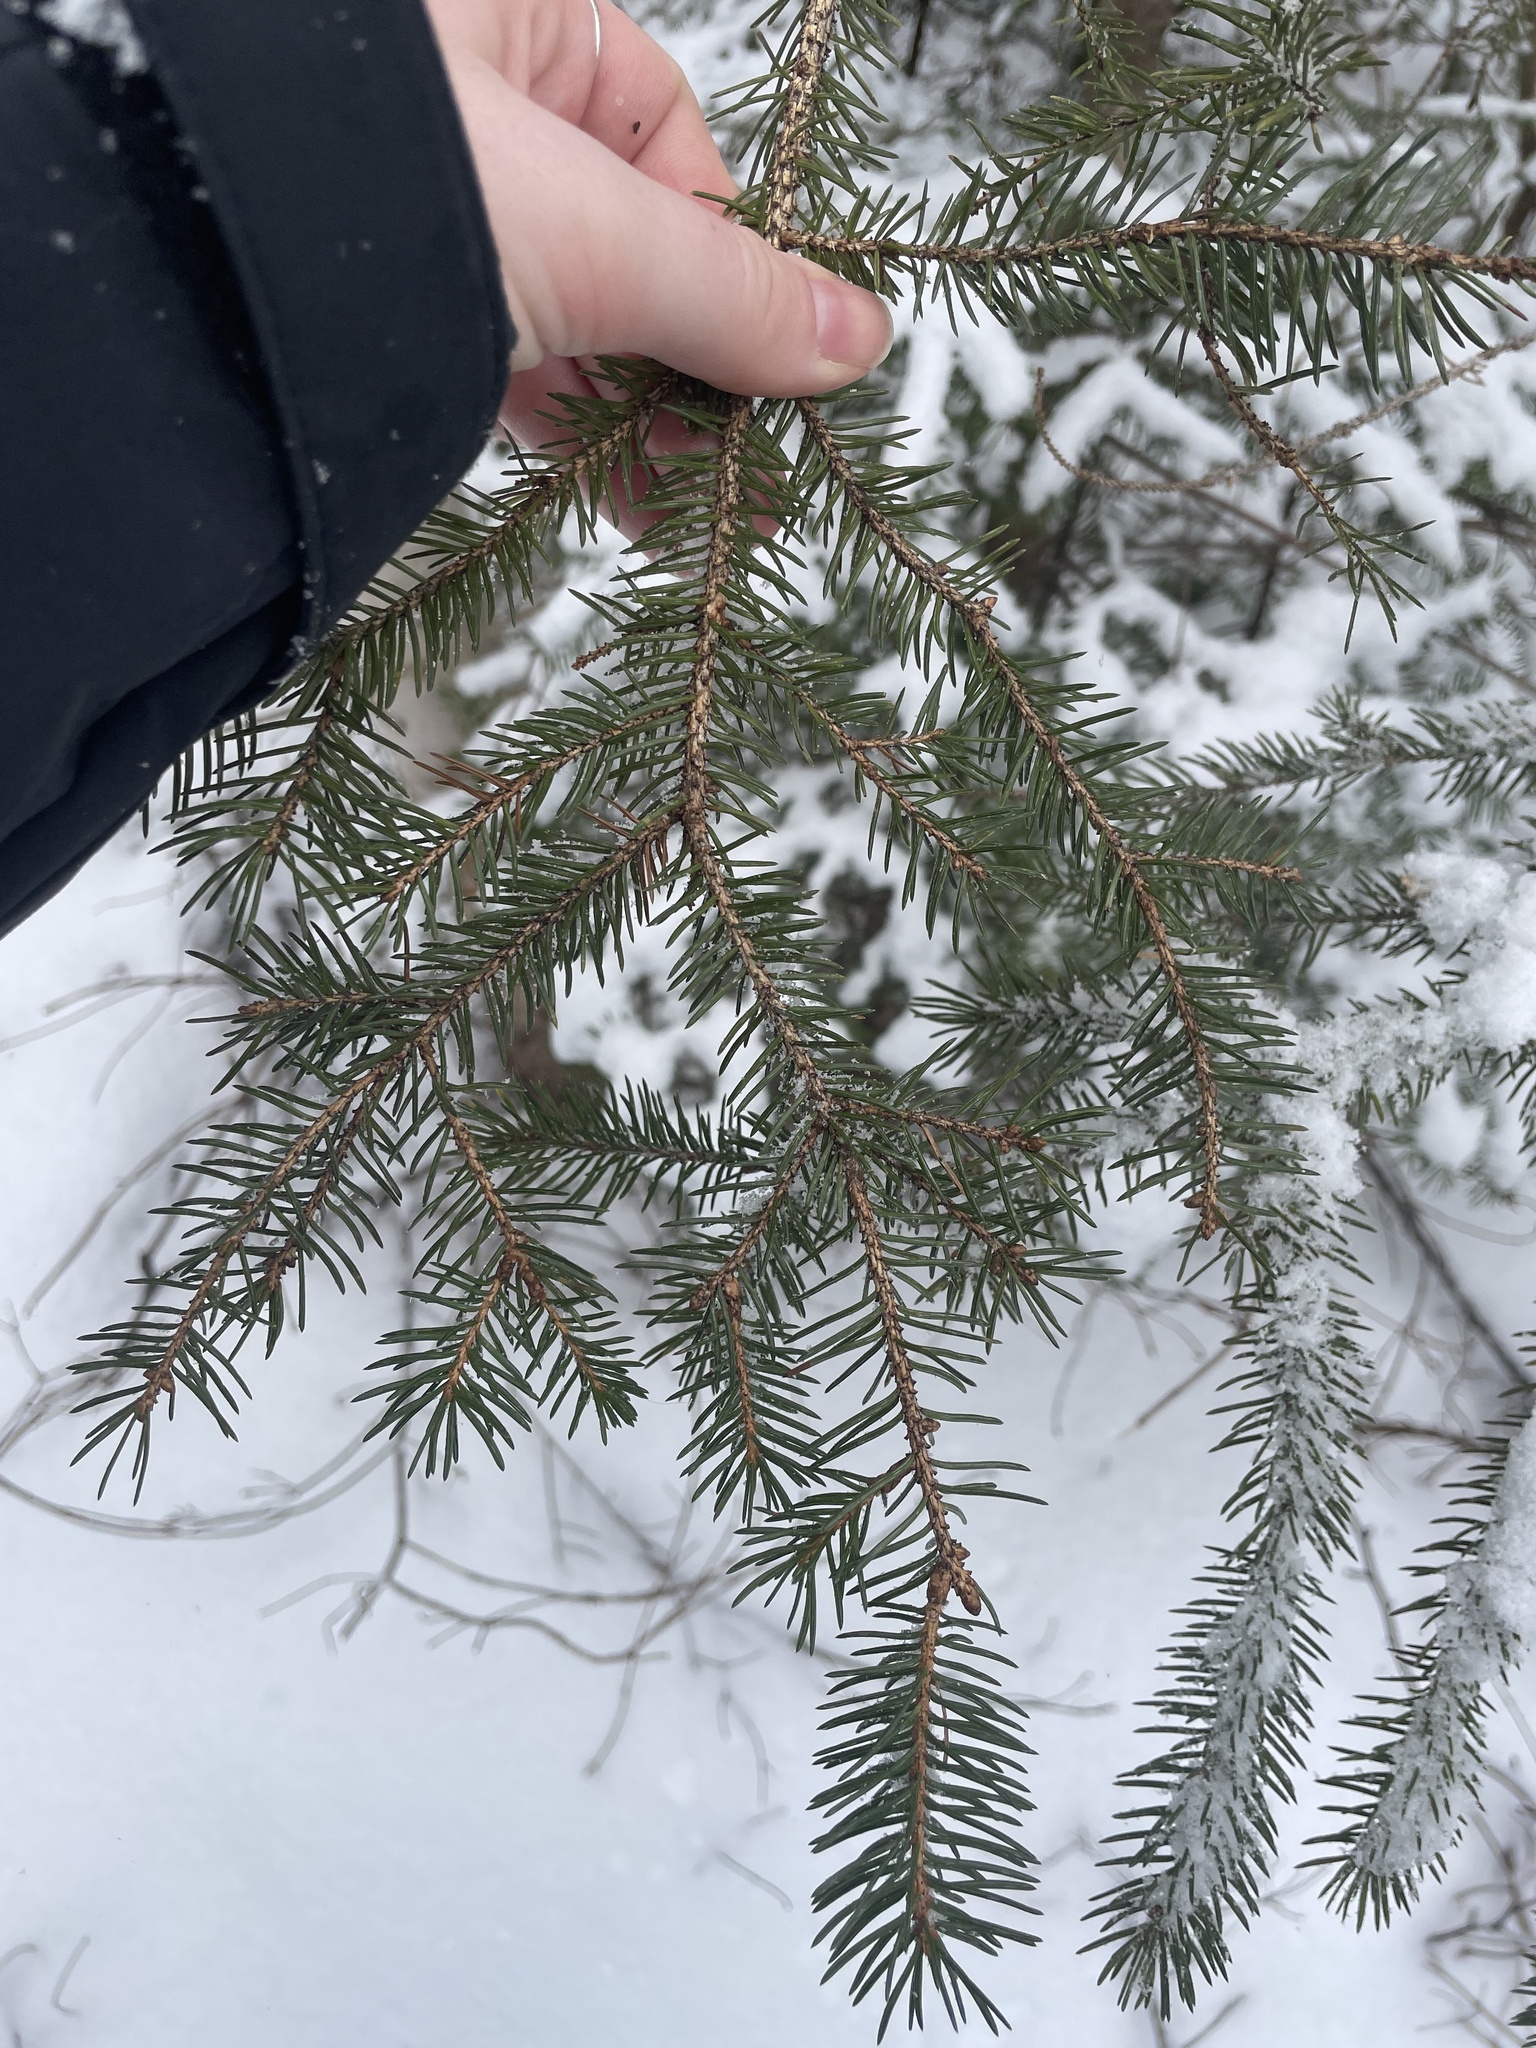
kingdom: Plantae
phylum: Tracheophyta
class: Pinopsida
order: Pinales
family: Pinaceae
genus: Picea
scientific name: Picea glauca
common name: White spruce
